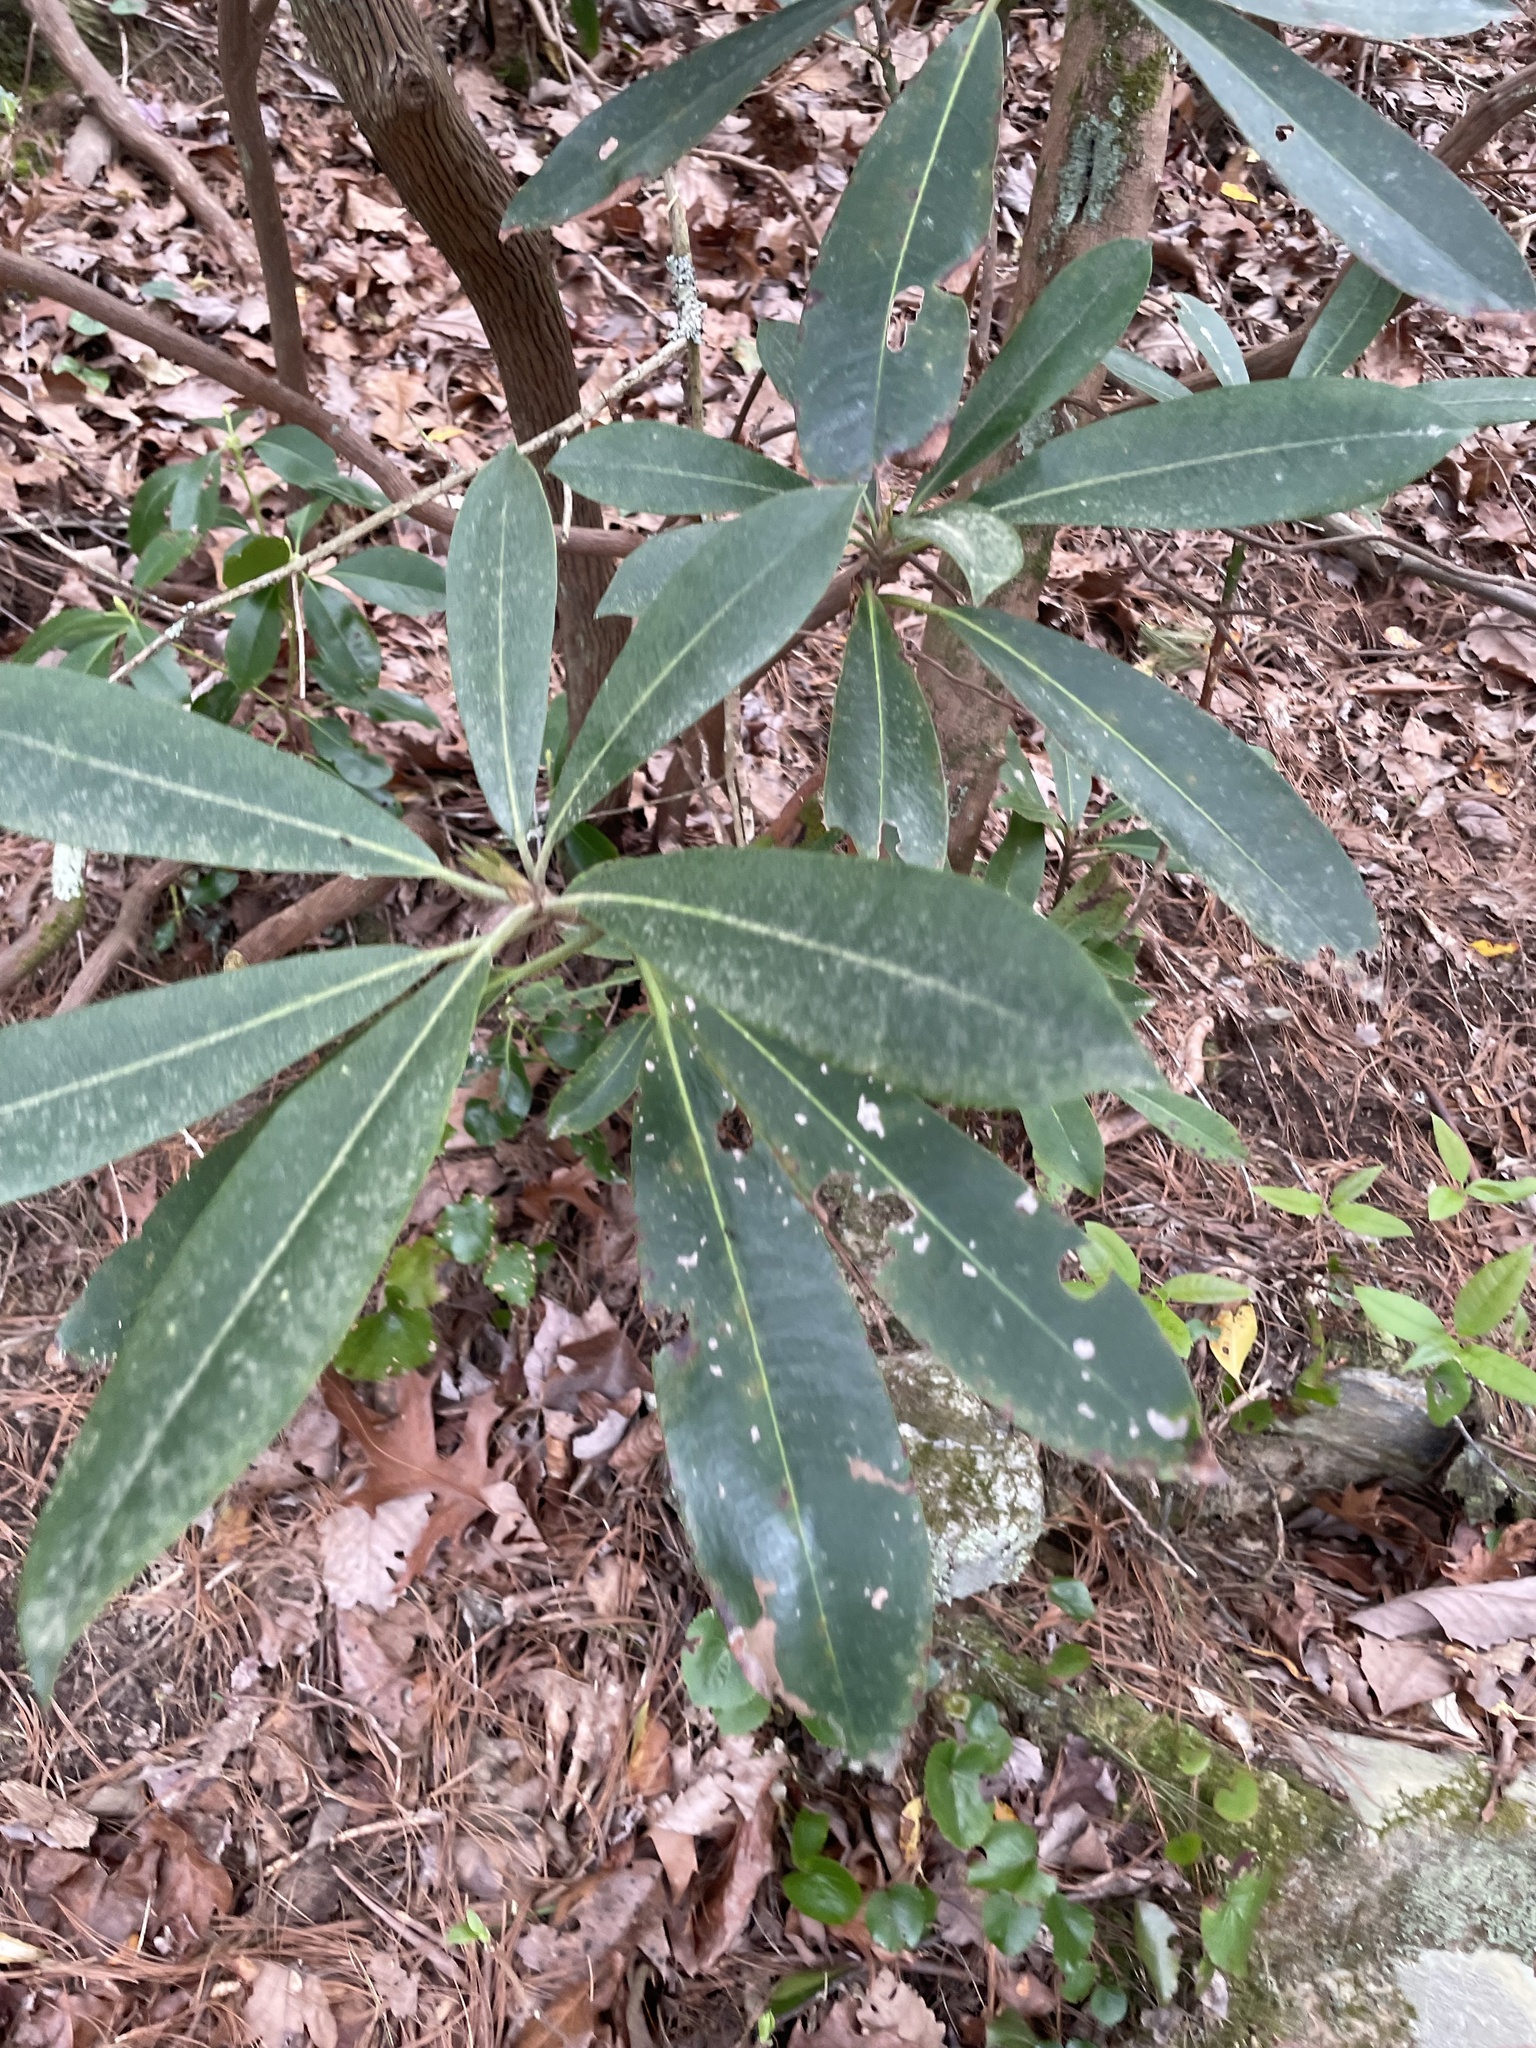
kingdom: Plantae
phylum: Tracheophyta
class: Magnoliopsida
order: Ericales
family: Ericaceae
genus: Rhododendron
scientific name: Rhododendron maximum
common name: Great rhododendron
